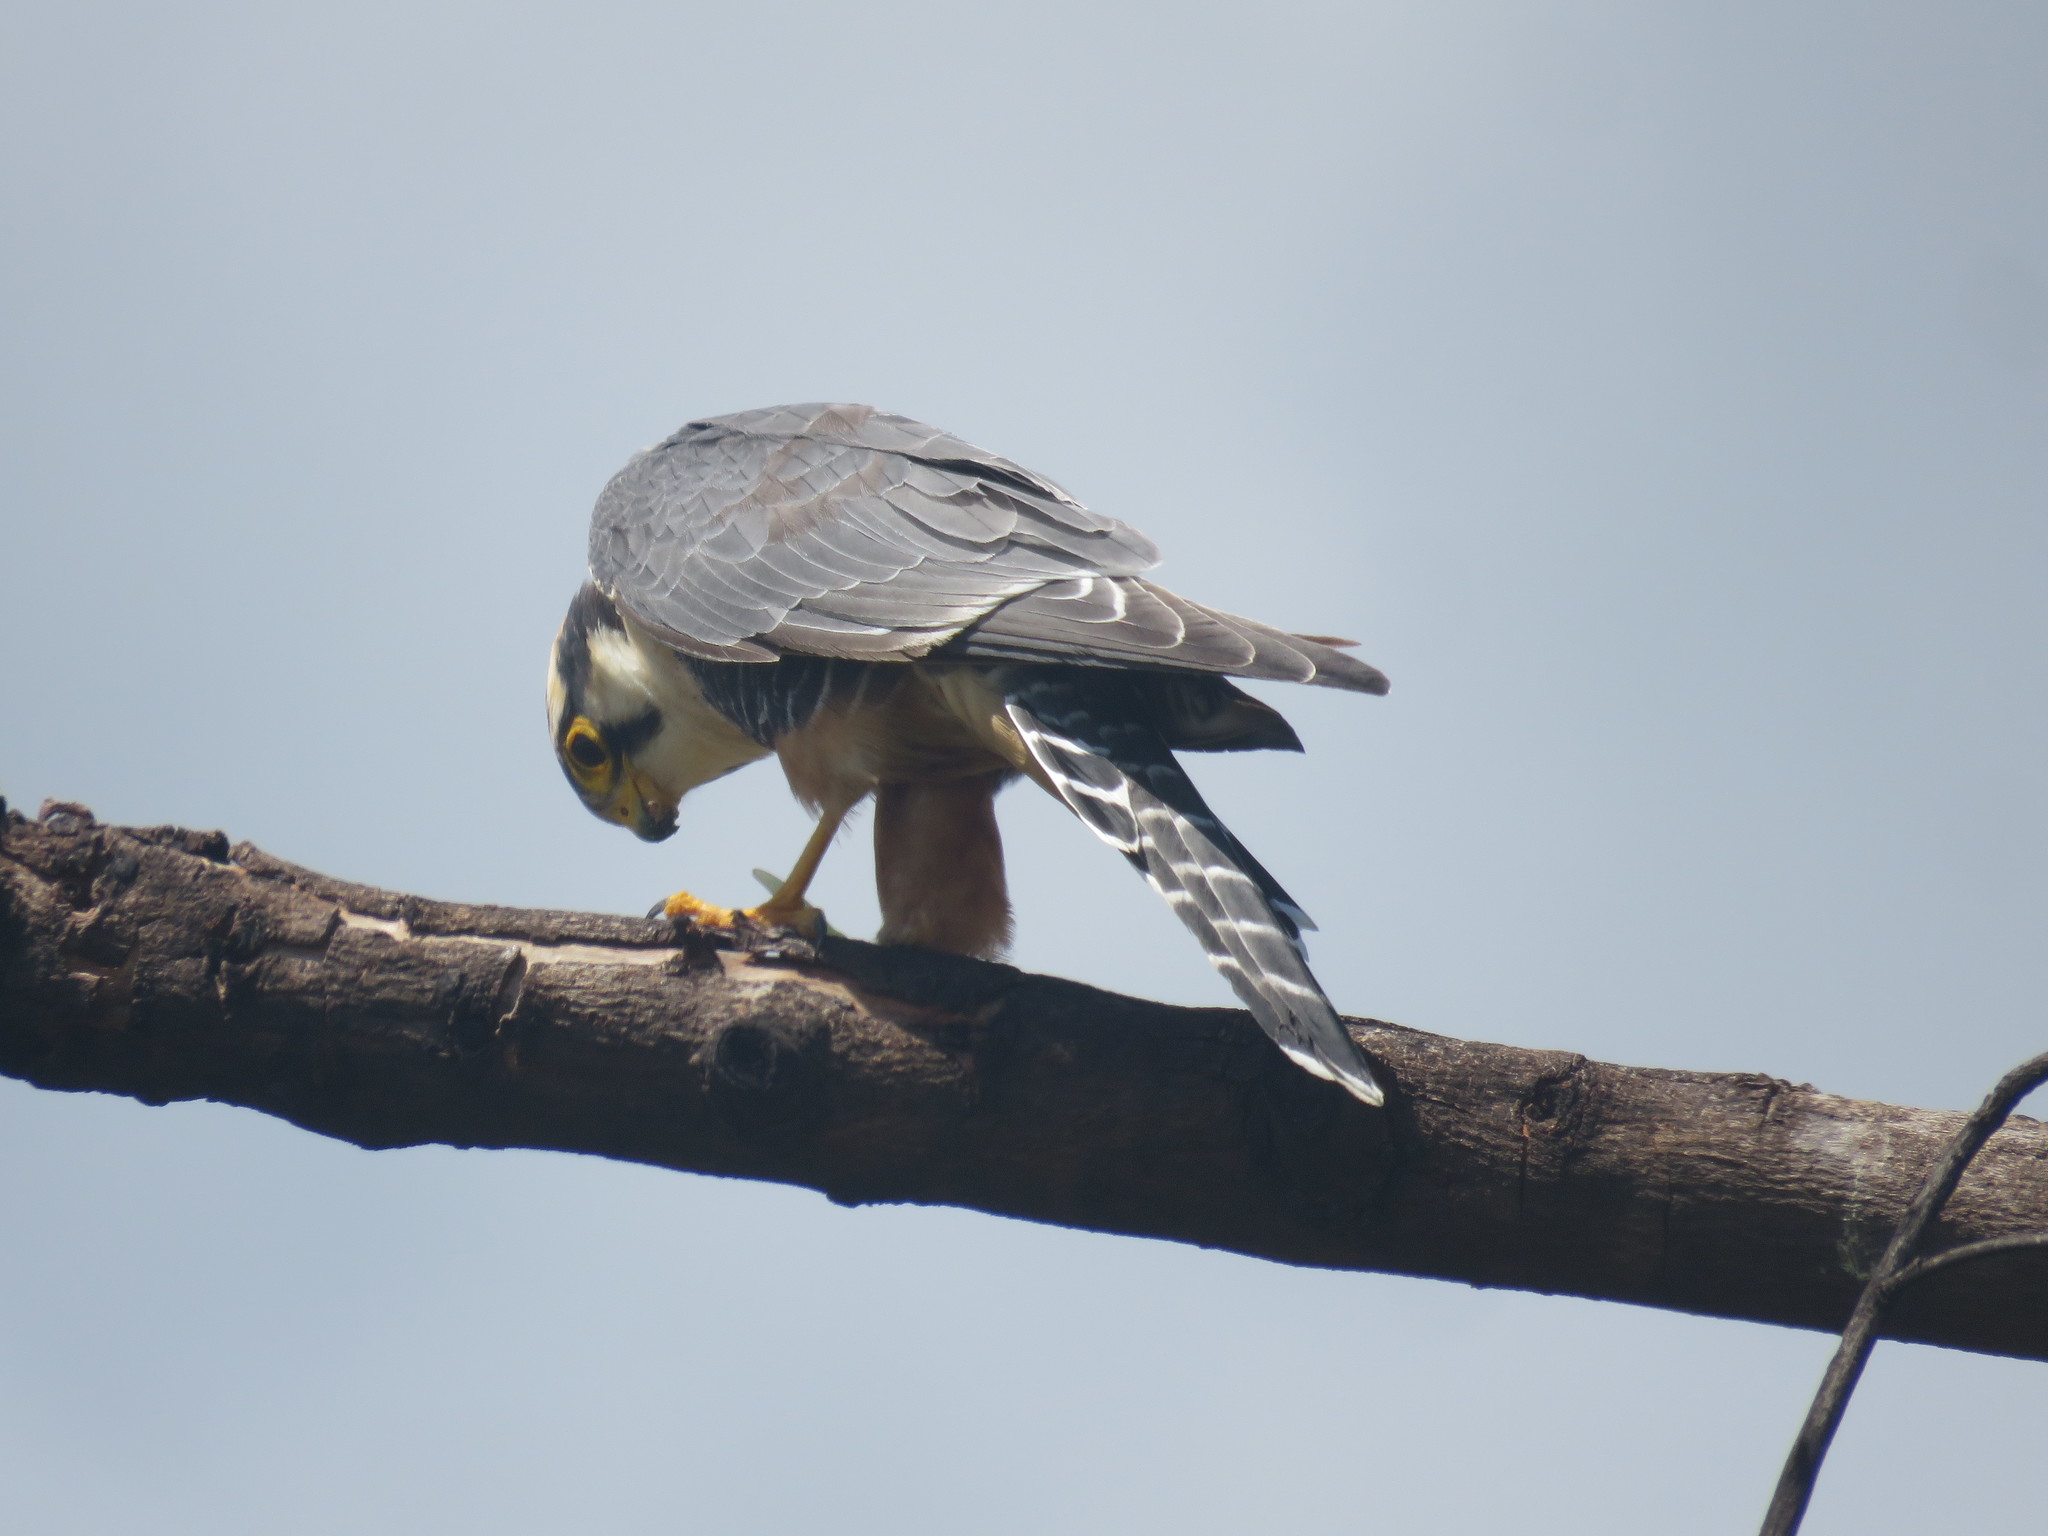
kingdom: Animalia
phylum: Chordata
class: Aves
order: Falconiformes
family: Falconidae
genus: Falco
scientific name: Falco femoralis
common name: Aplomado falcon
